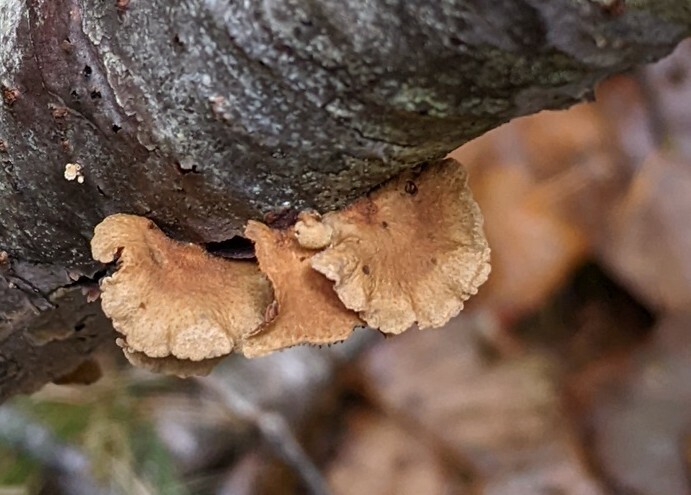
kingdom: Fungi
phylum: Basidiomycota
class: Agaricomycetes
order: Agaricales
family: Mycenaceae
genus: Panellus
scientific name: Panellus stipticus
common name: Bitter oysterling
